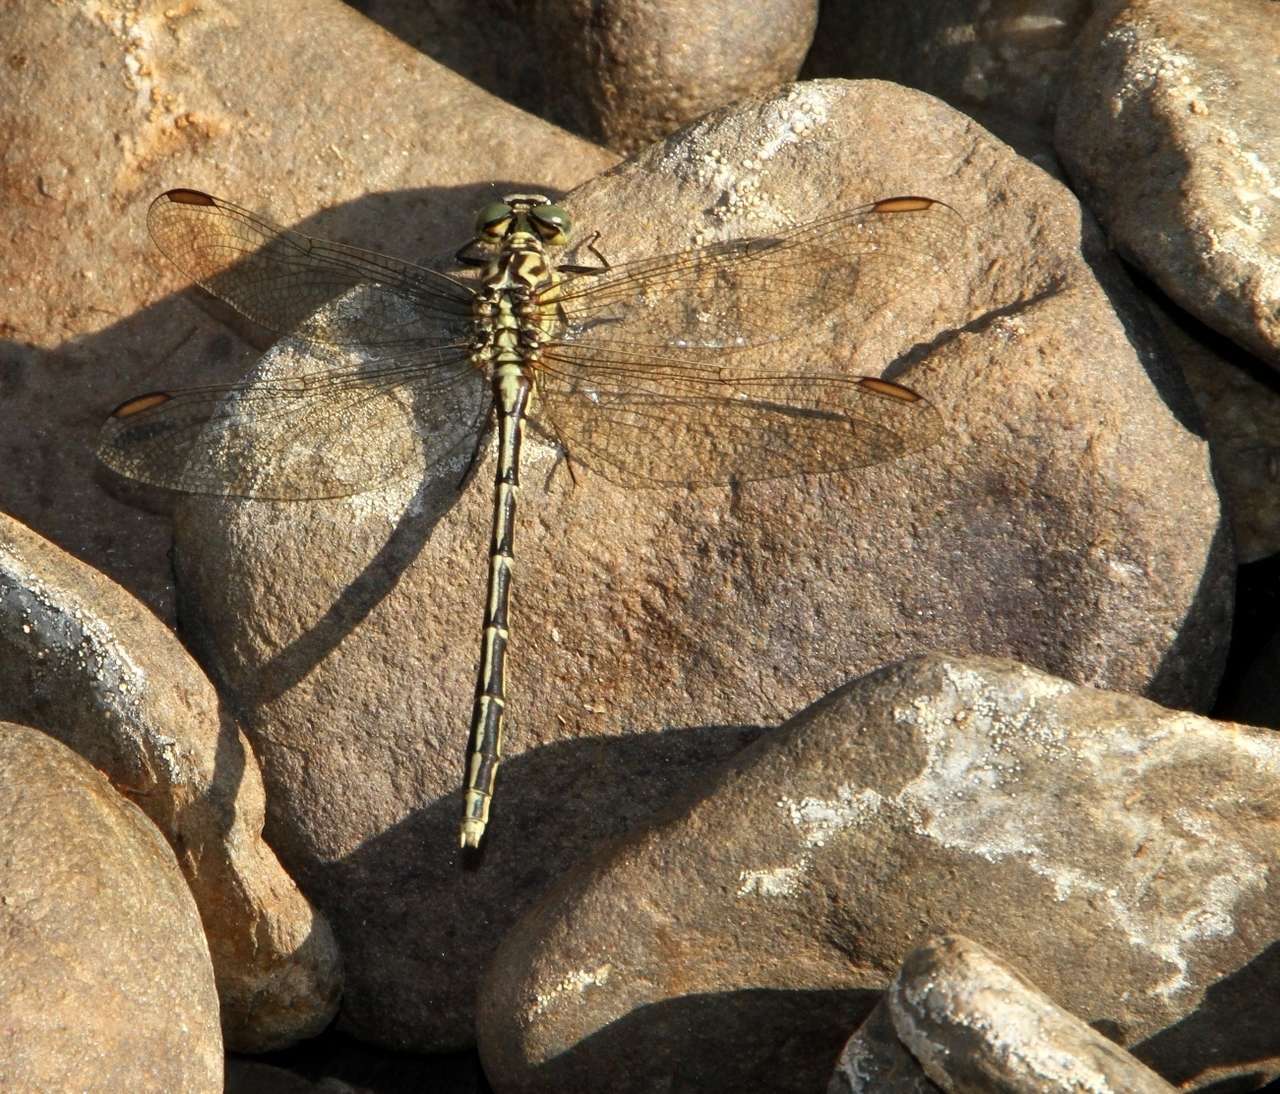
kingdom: Animalia
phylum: Arthropoda
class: Insecta
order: Odonata
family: Gomphidae
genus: Austrogomphus
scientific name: Austrogomphus guerini
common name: Yellow-striped hunter
